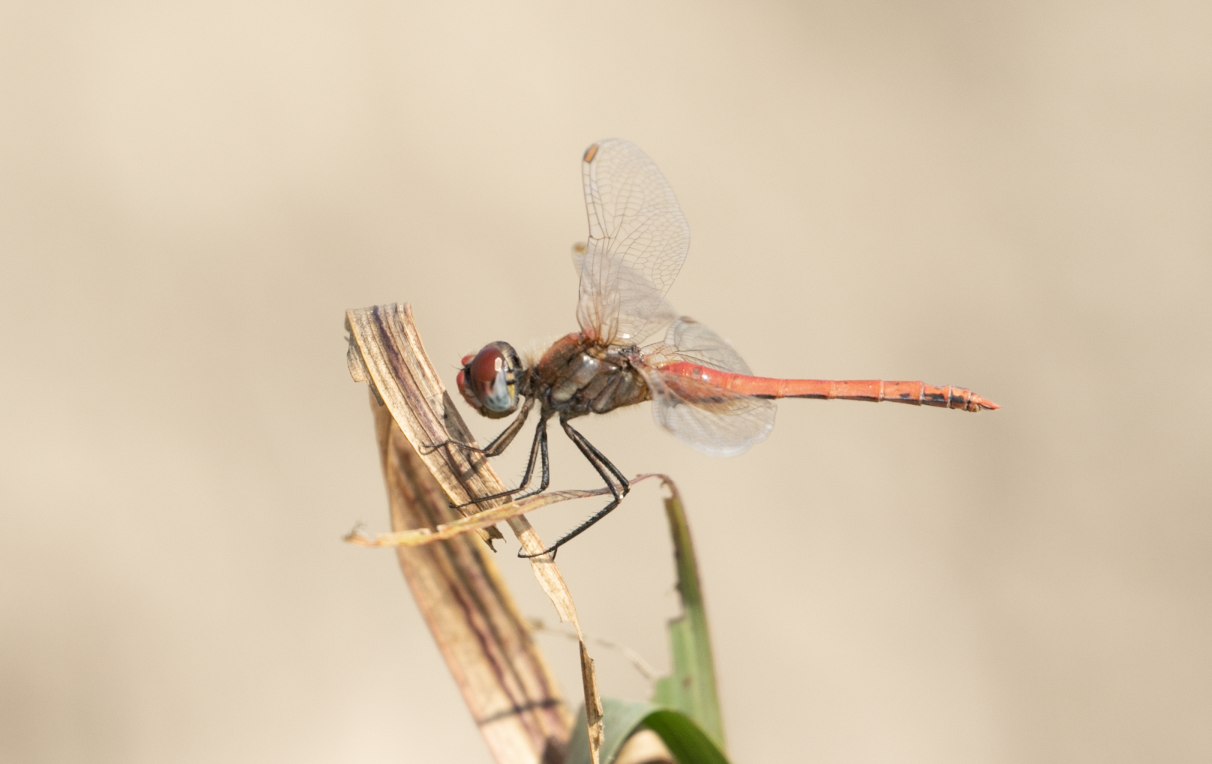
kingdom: Animalia
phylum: Arthropoda
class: Insecta
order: Odonata
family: Libellulidae
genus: Sympetrum
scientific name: Sympetrum fonscolombii
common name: Red-veined darter
